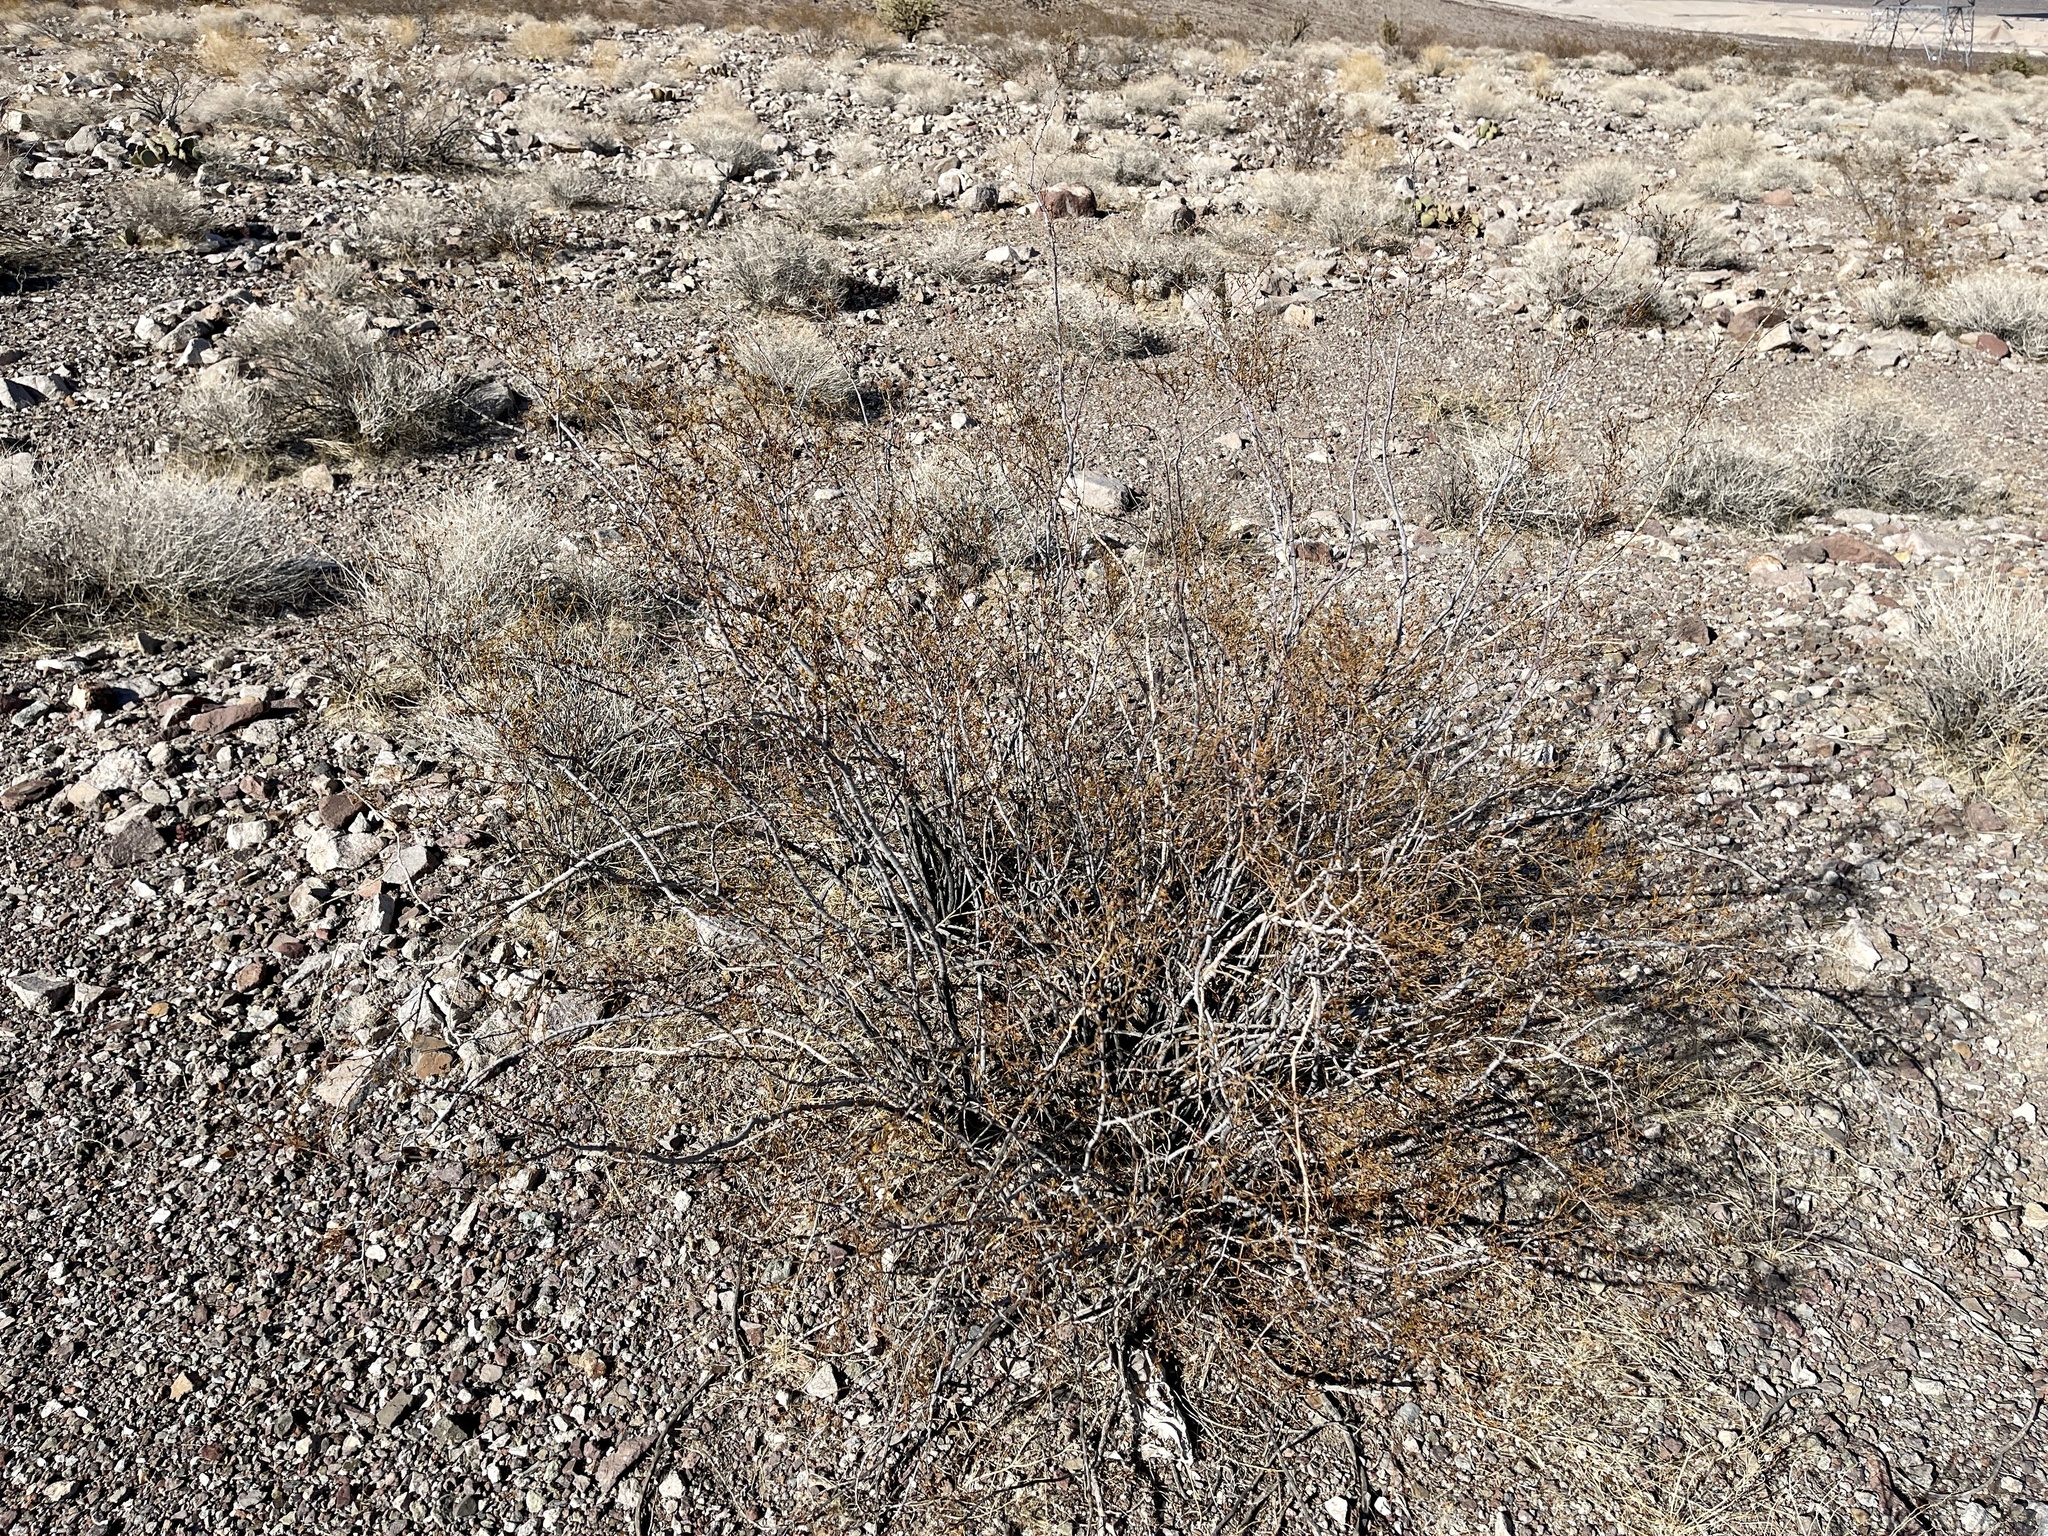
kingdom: Plantae
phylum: Tracheophyta
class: Magnoliopsida
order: Zygophyllales
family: Zygophyllaceae
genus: Larrea
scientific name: Larrea tridentata
